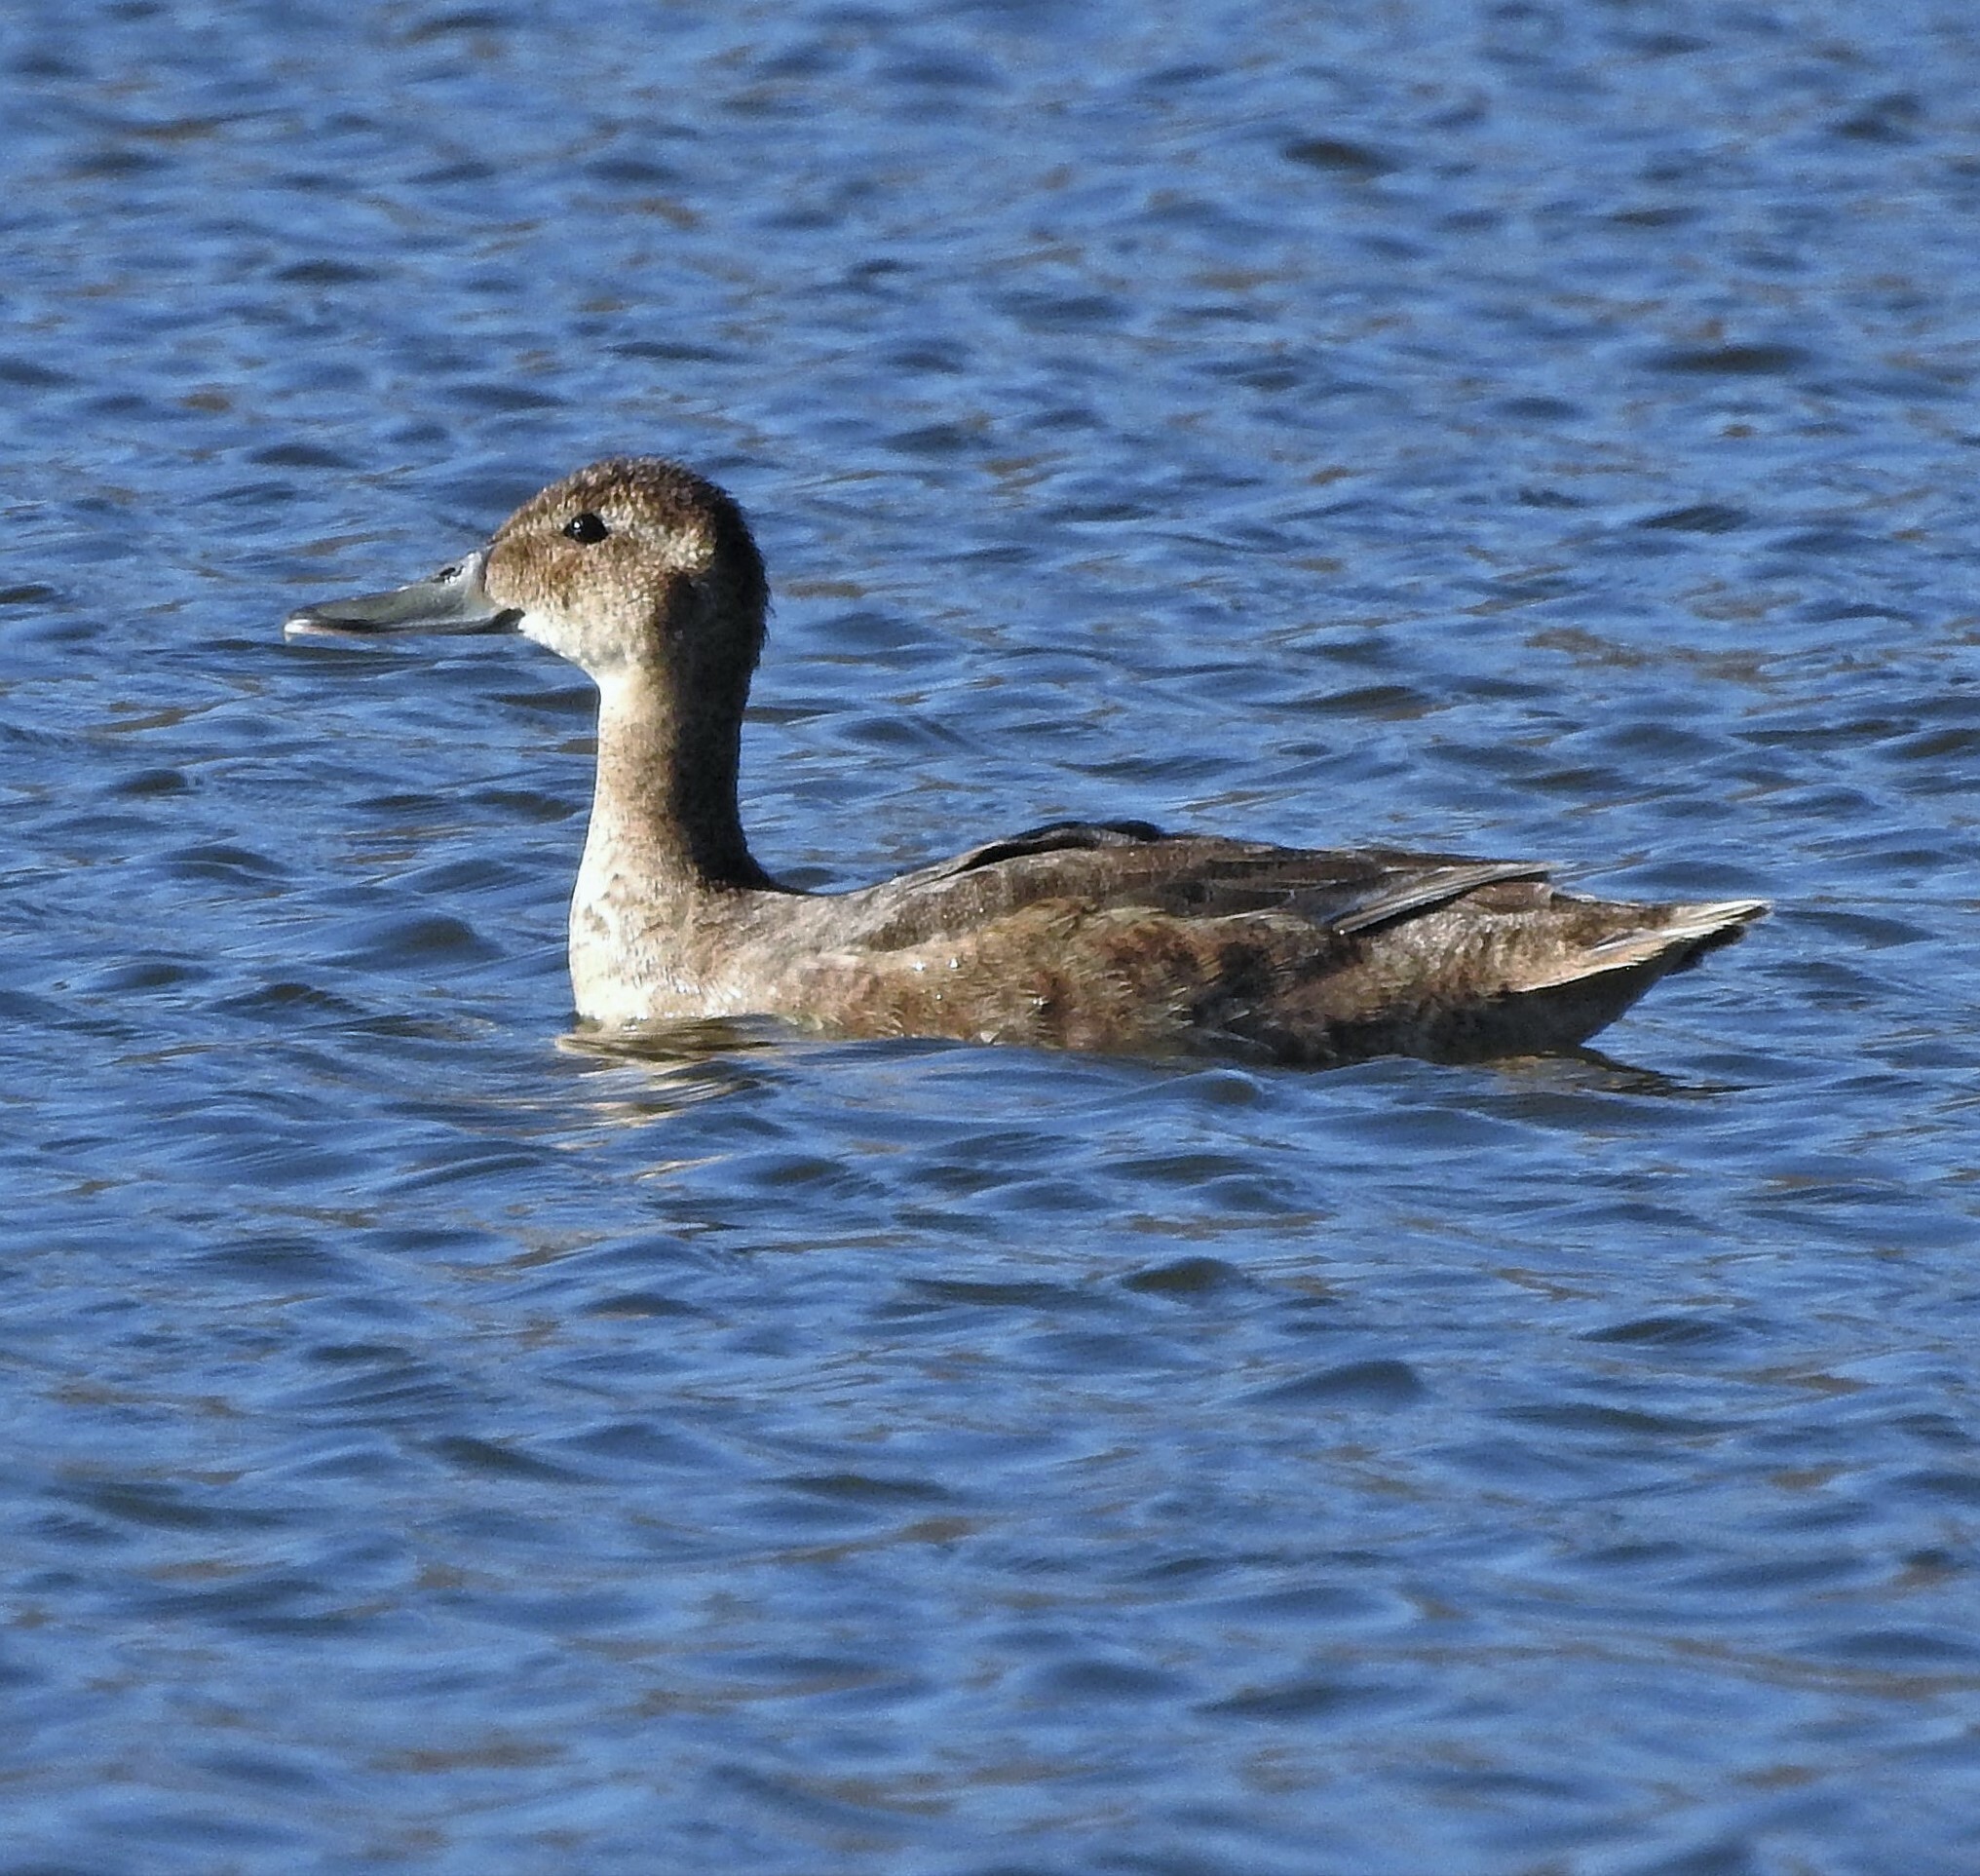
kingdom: Animalia
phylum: Chordata
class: Aves
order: Anseriformes
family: Anatidae
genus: Heteronetta
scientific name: Heteronetta atricapilla
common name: Black-headed duck
